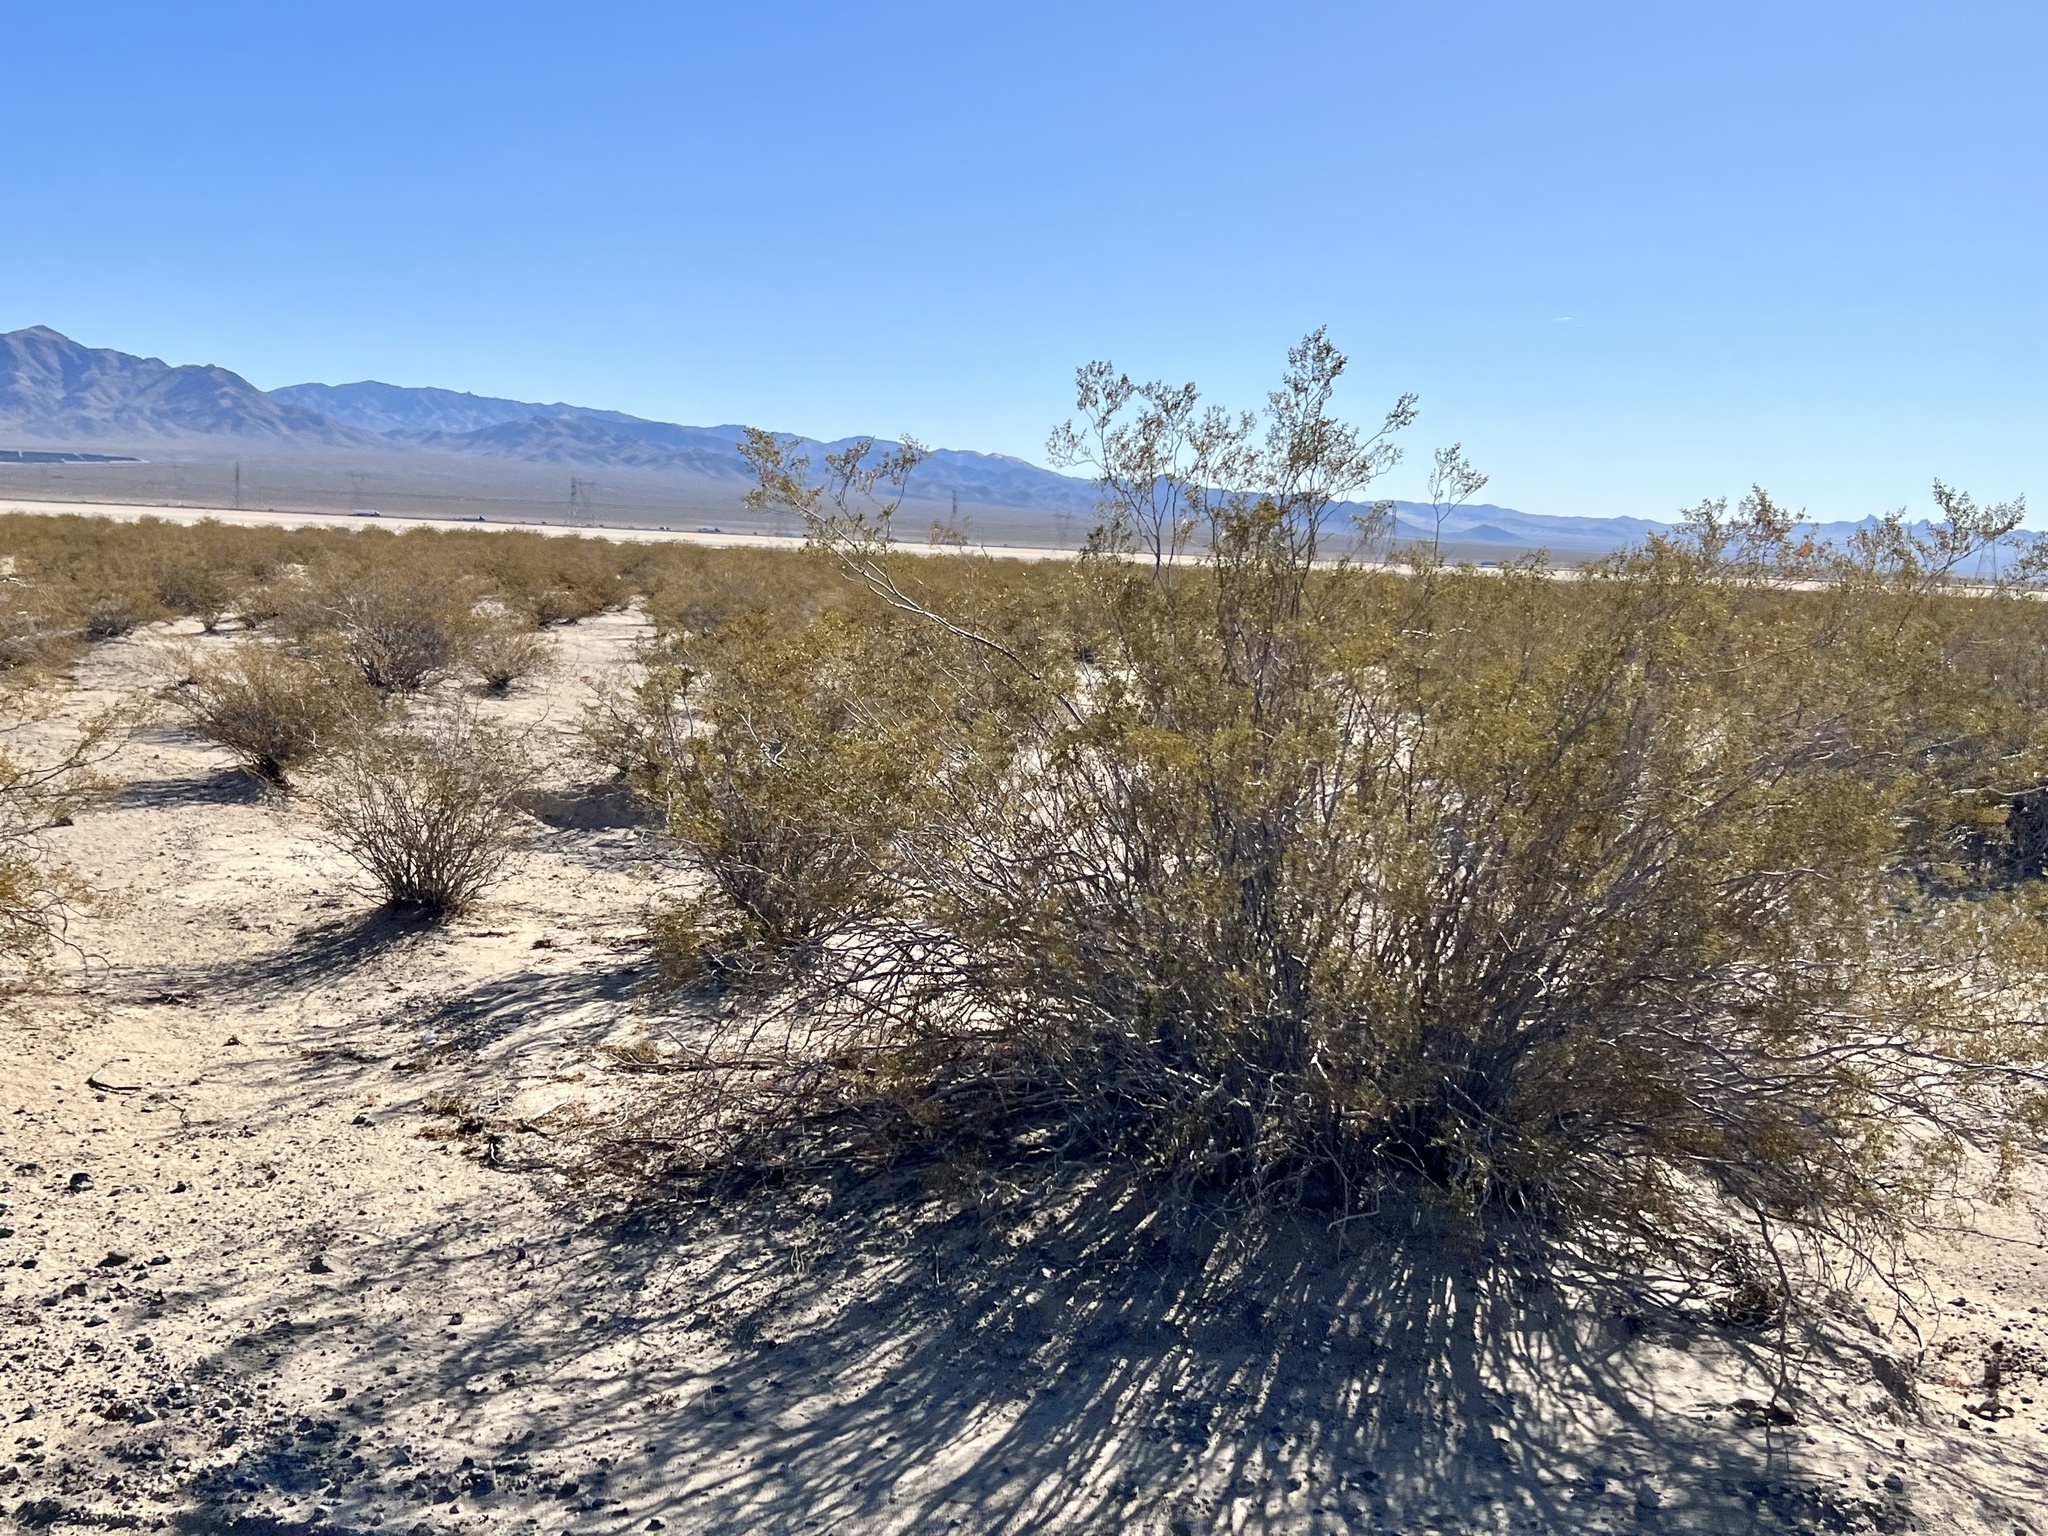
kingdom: Plantae
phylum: Tracheophyta
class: Magnoliopsida
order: Zygophyllales
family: Zygophyllaceae
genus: Larrea
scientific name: Larrea tridentata
